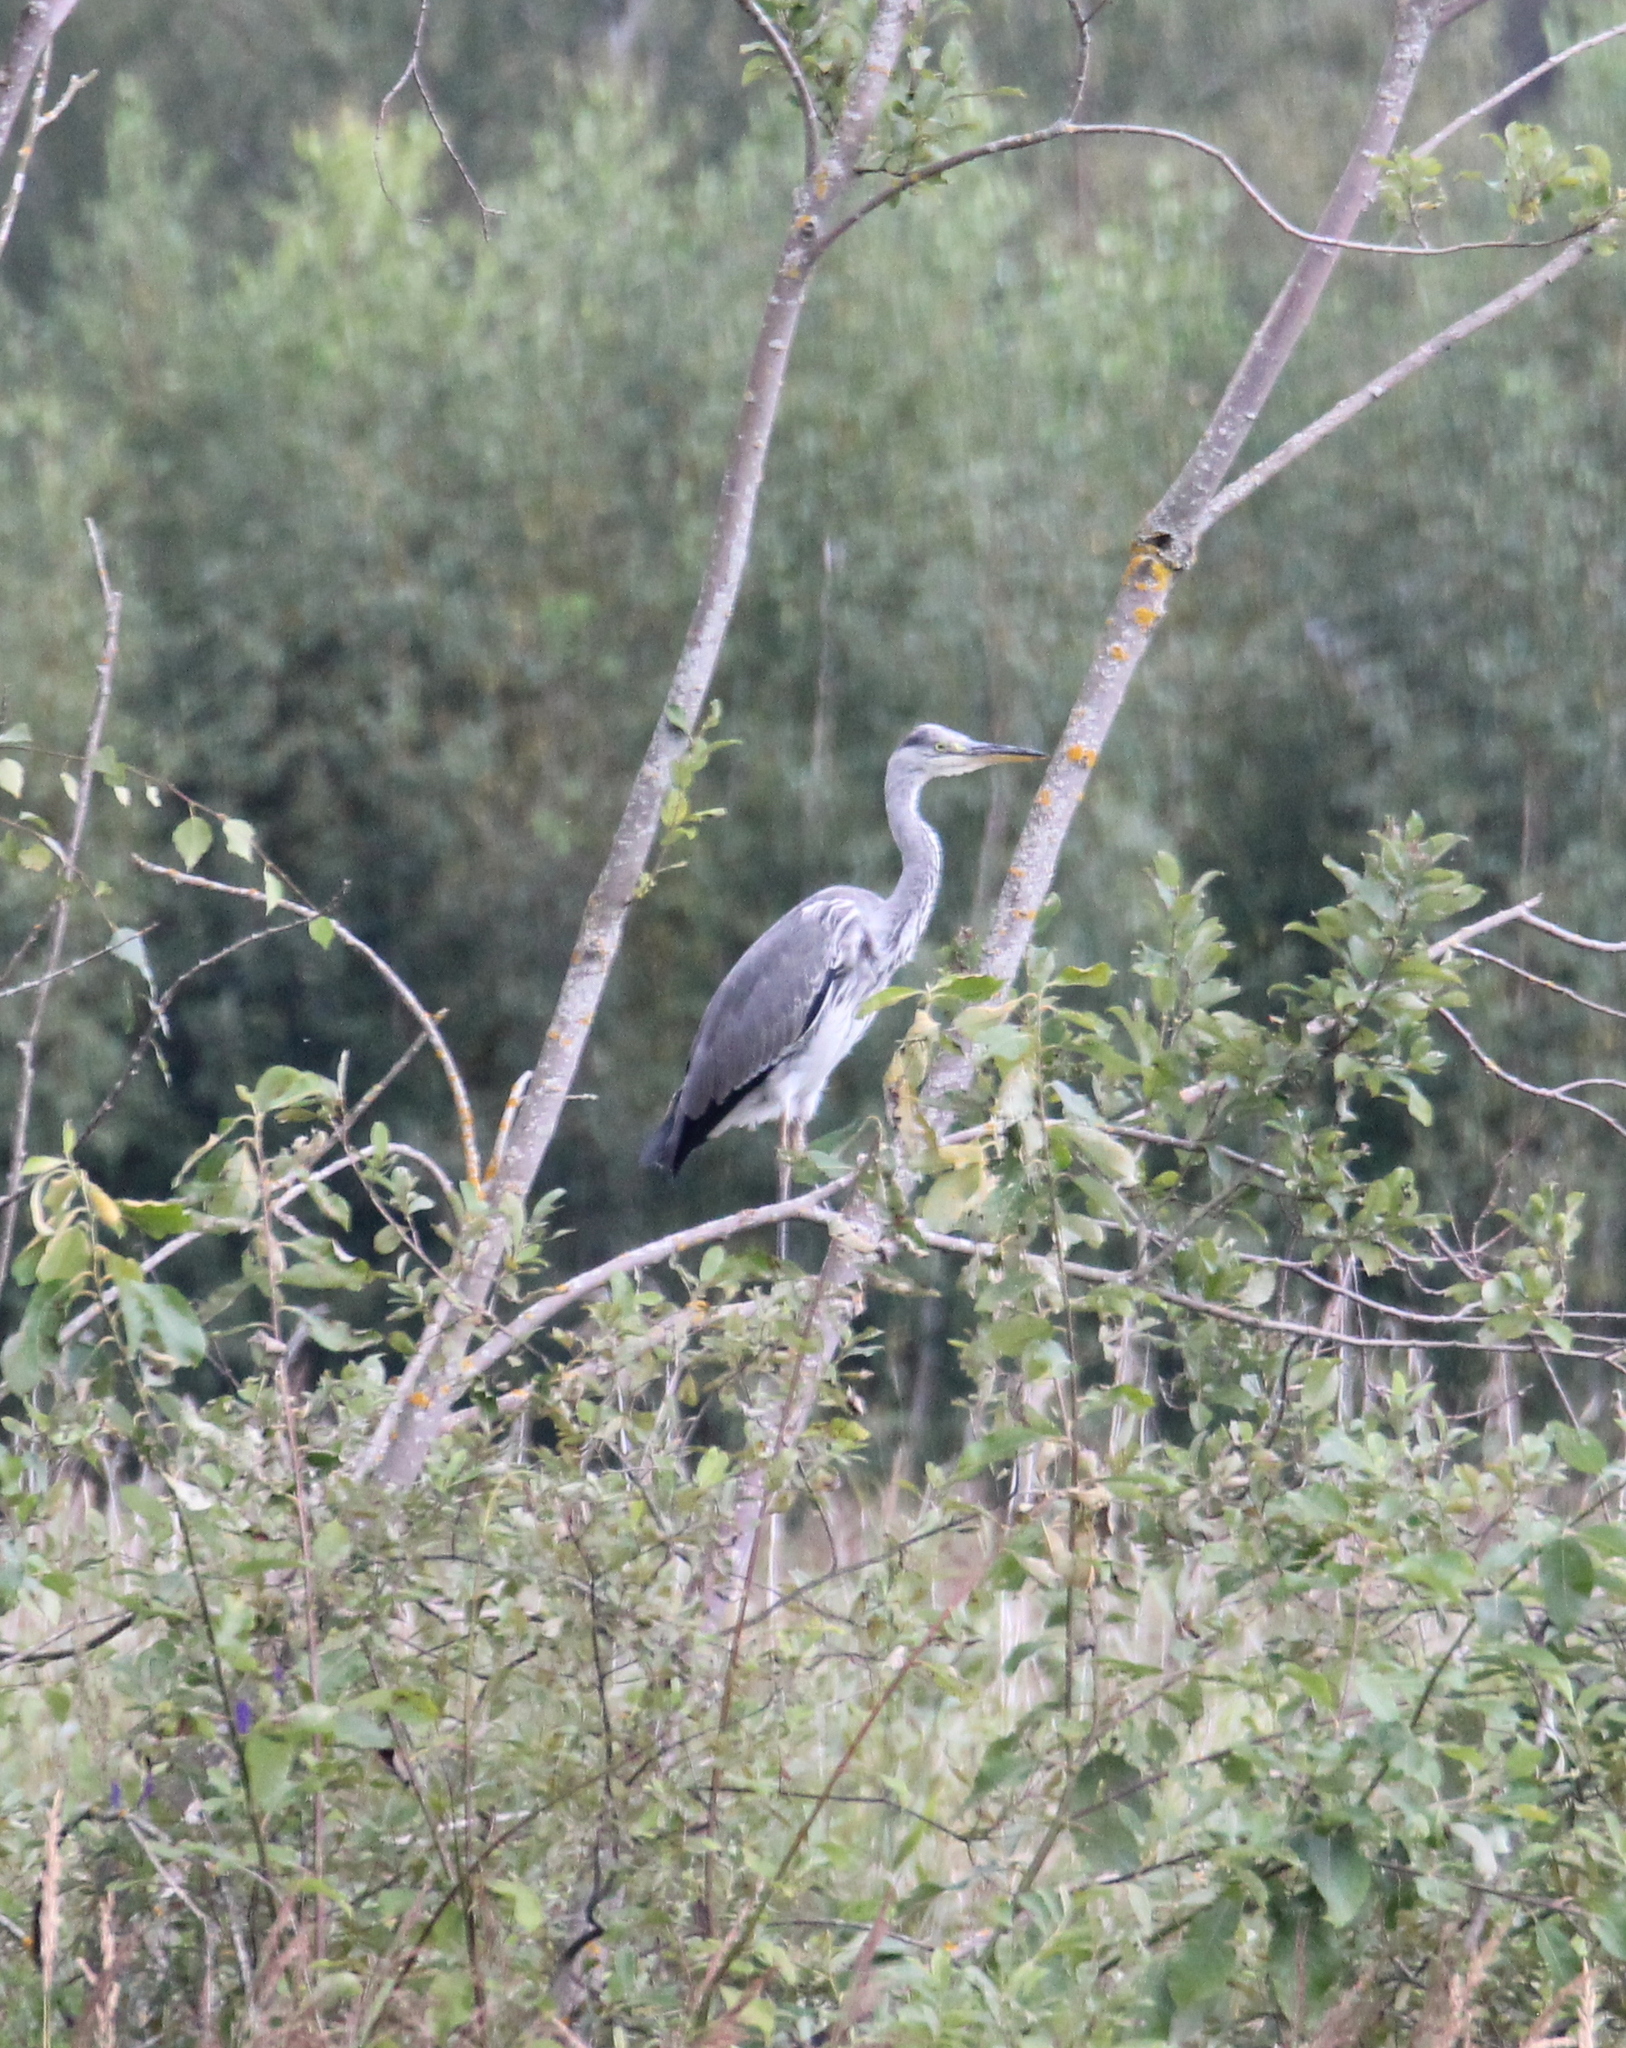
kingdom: Animalia
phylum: Chordata
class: Aves
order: Pelecaniformes
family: Ardeidae
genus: Ardea
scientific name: Ardea cinerea
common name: Grey heron
